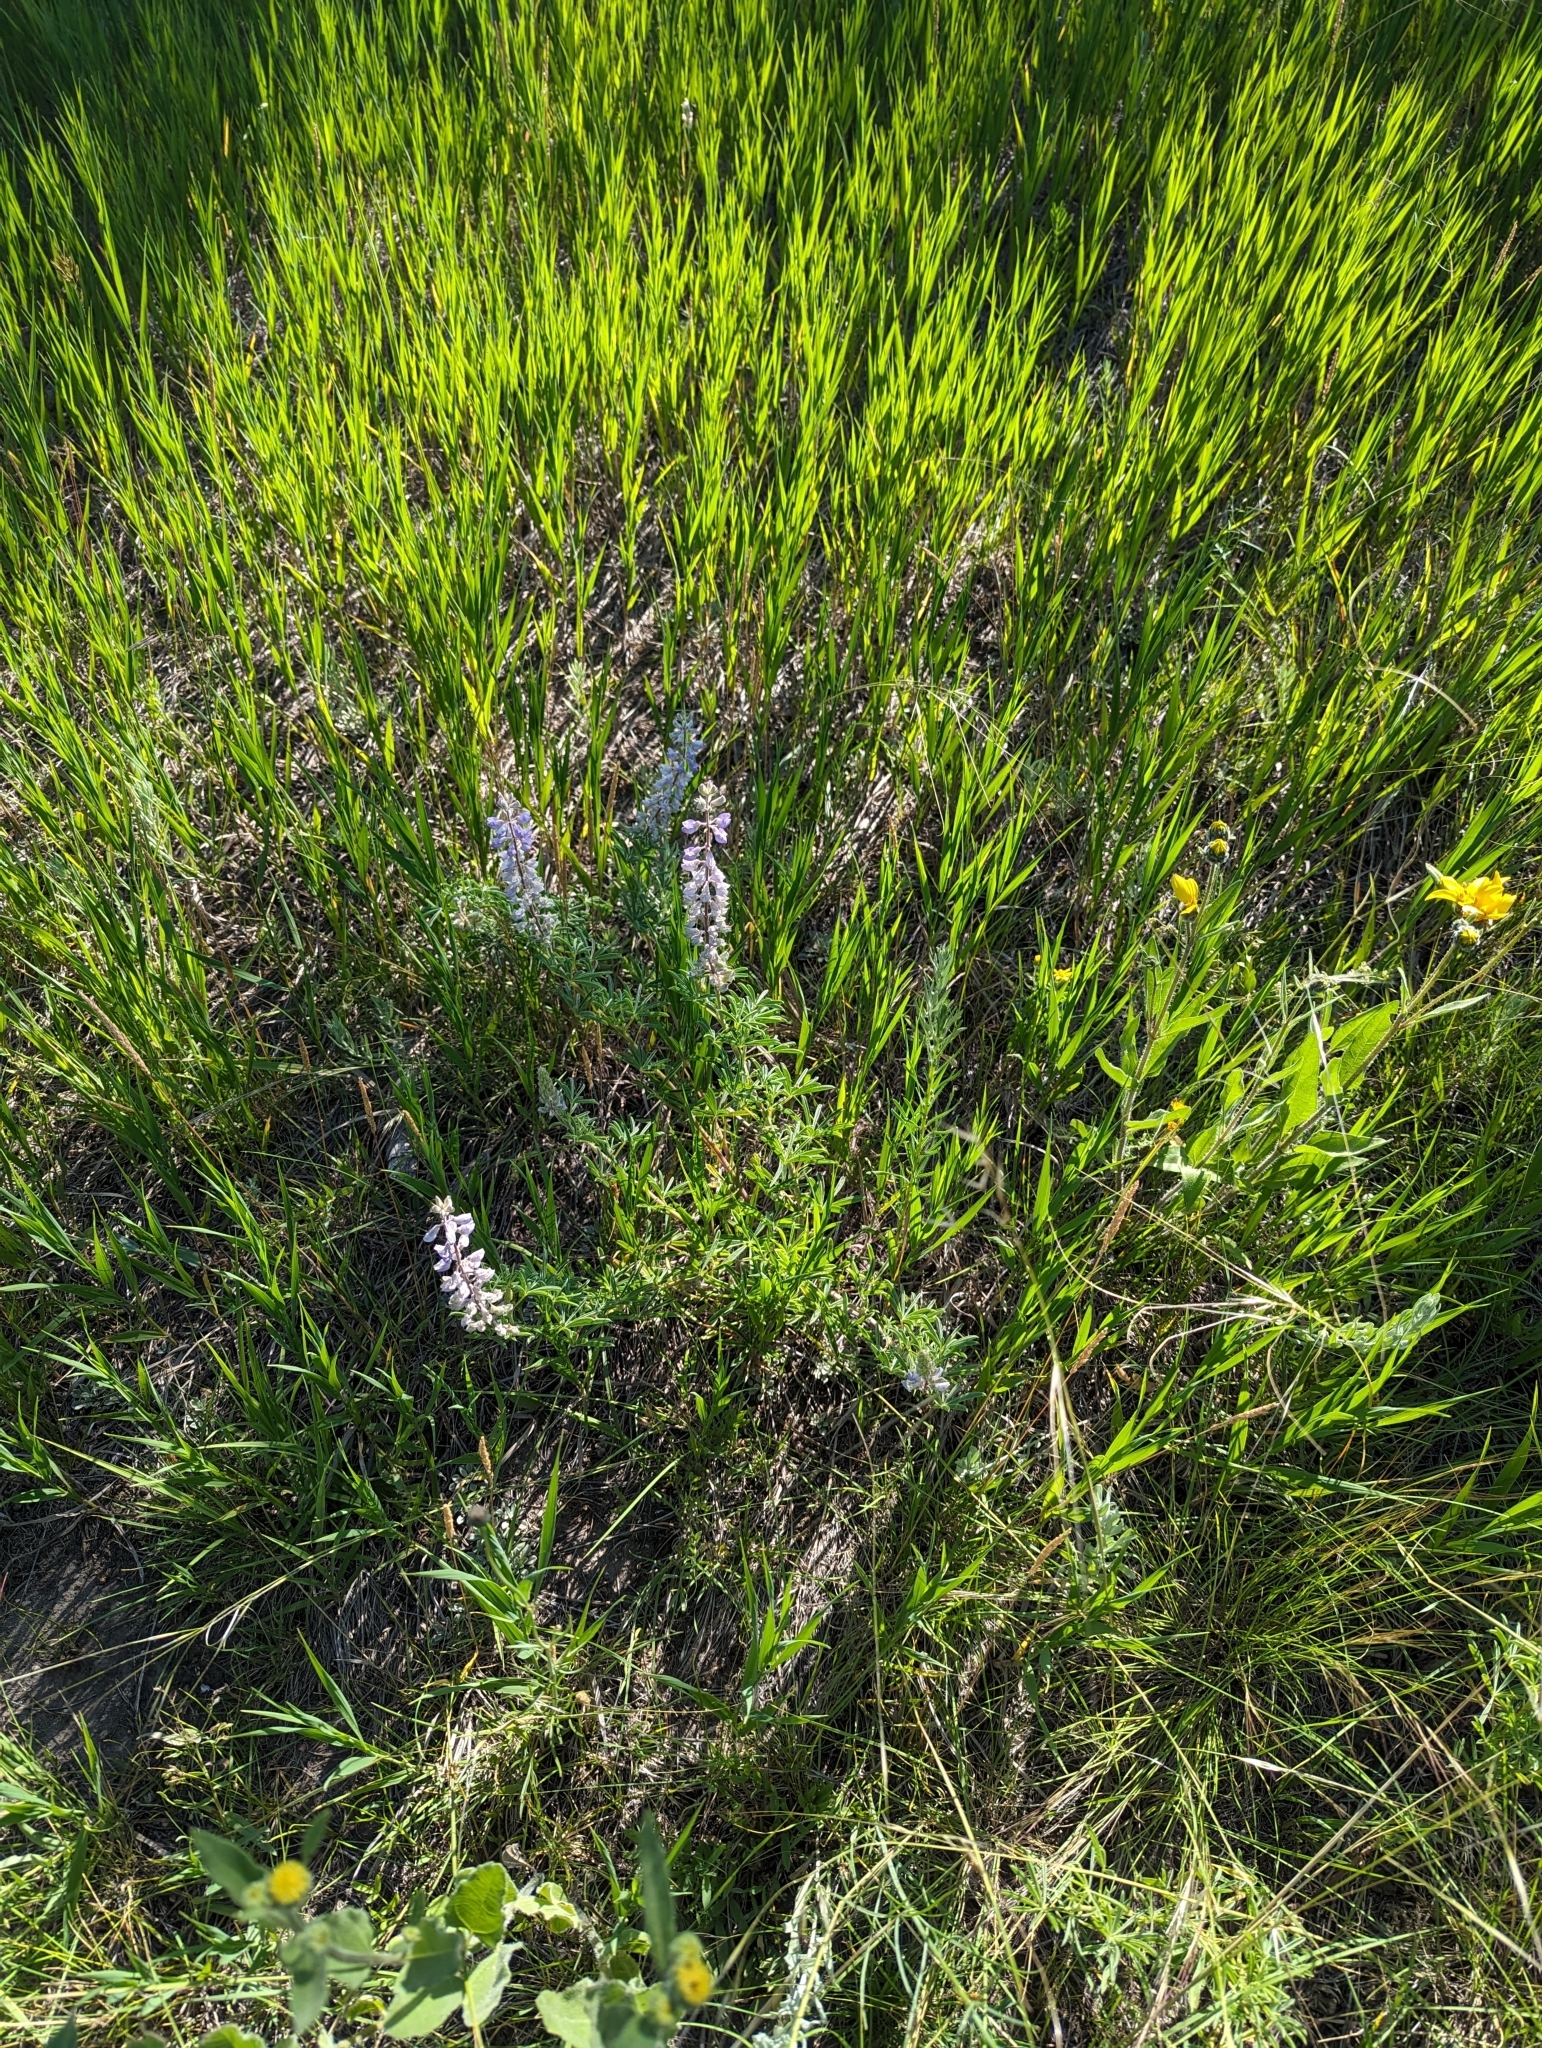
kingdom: Plantae
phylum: Tracheophyta
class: Magnoliopsida
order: Fabales
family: Fabaceae
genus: Lupinus
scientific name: Lupinus argenteus
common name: Silvery lupine
